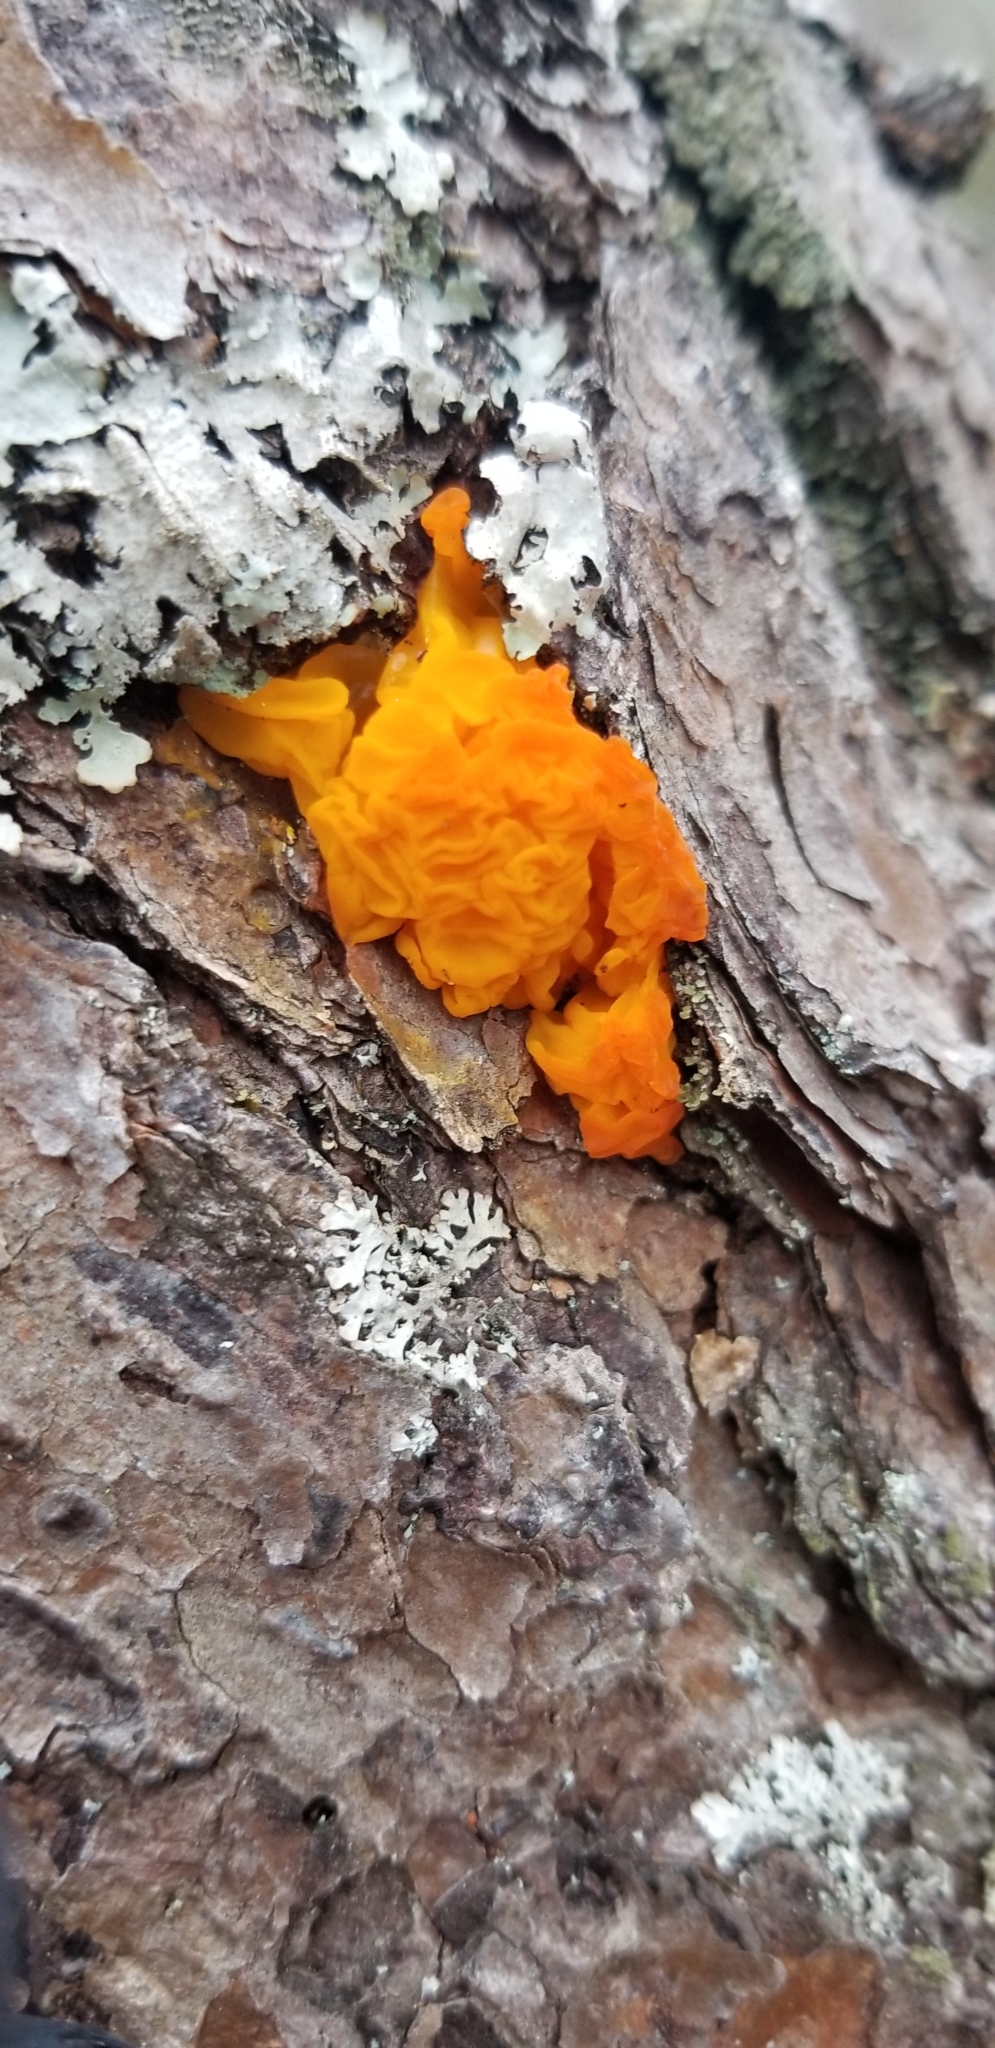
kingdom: Fungi
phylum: Basidiomycota
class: Dacrymycetes
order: Dacrymycetales
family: Dacrymycetaceae
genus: Dacrymyces
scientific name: Dacrymyces chrysospermus
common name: Orange jelly spot
